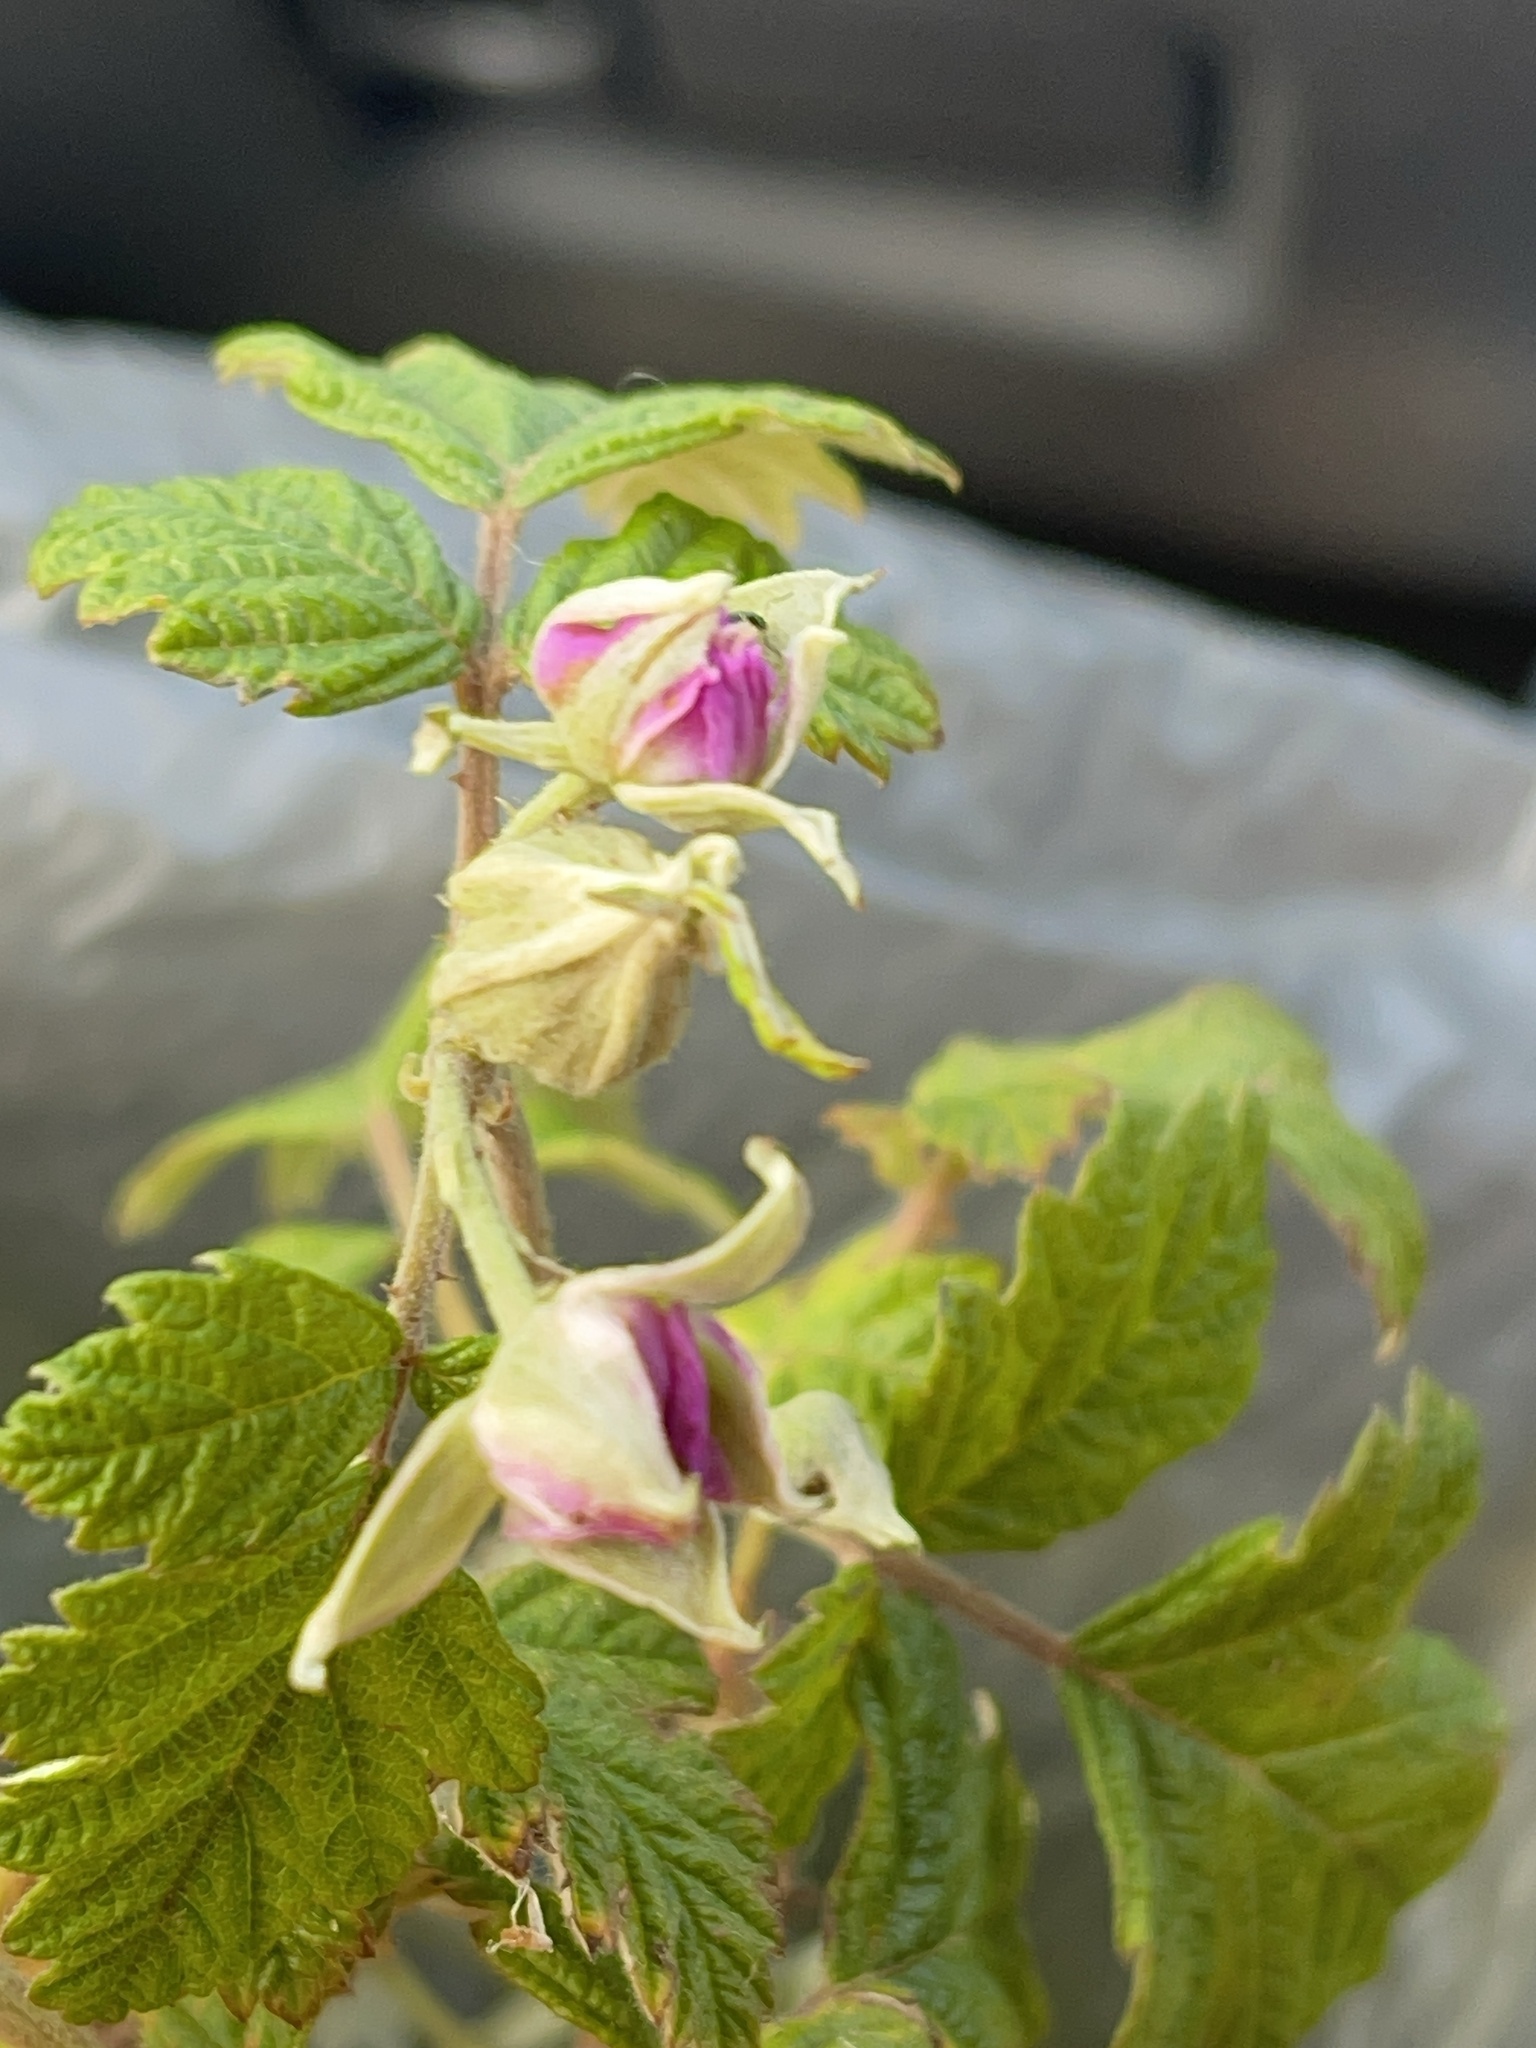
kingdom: Plantae
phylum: Tracheophyta
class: Magnoliopsida
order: Rosales
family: Rosaceae
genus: Rubus
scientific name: Rubus parvifolius
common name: Threeleaf blackberry
